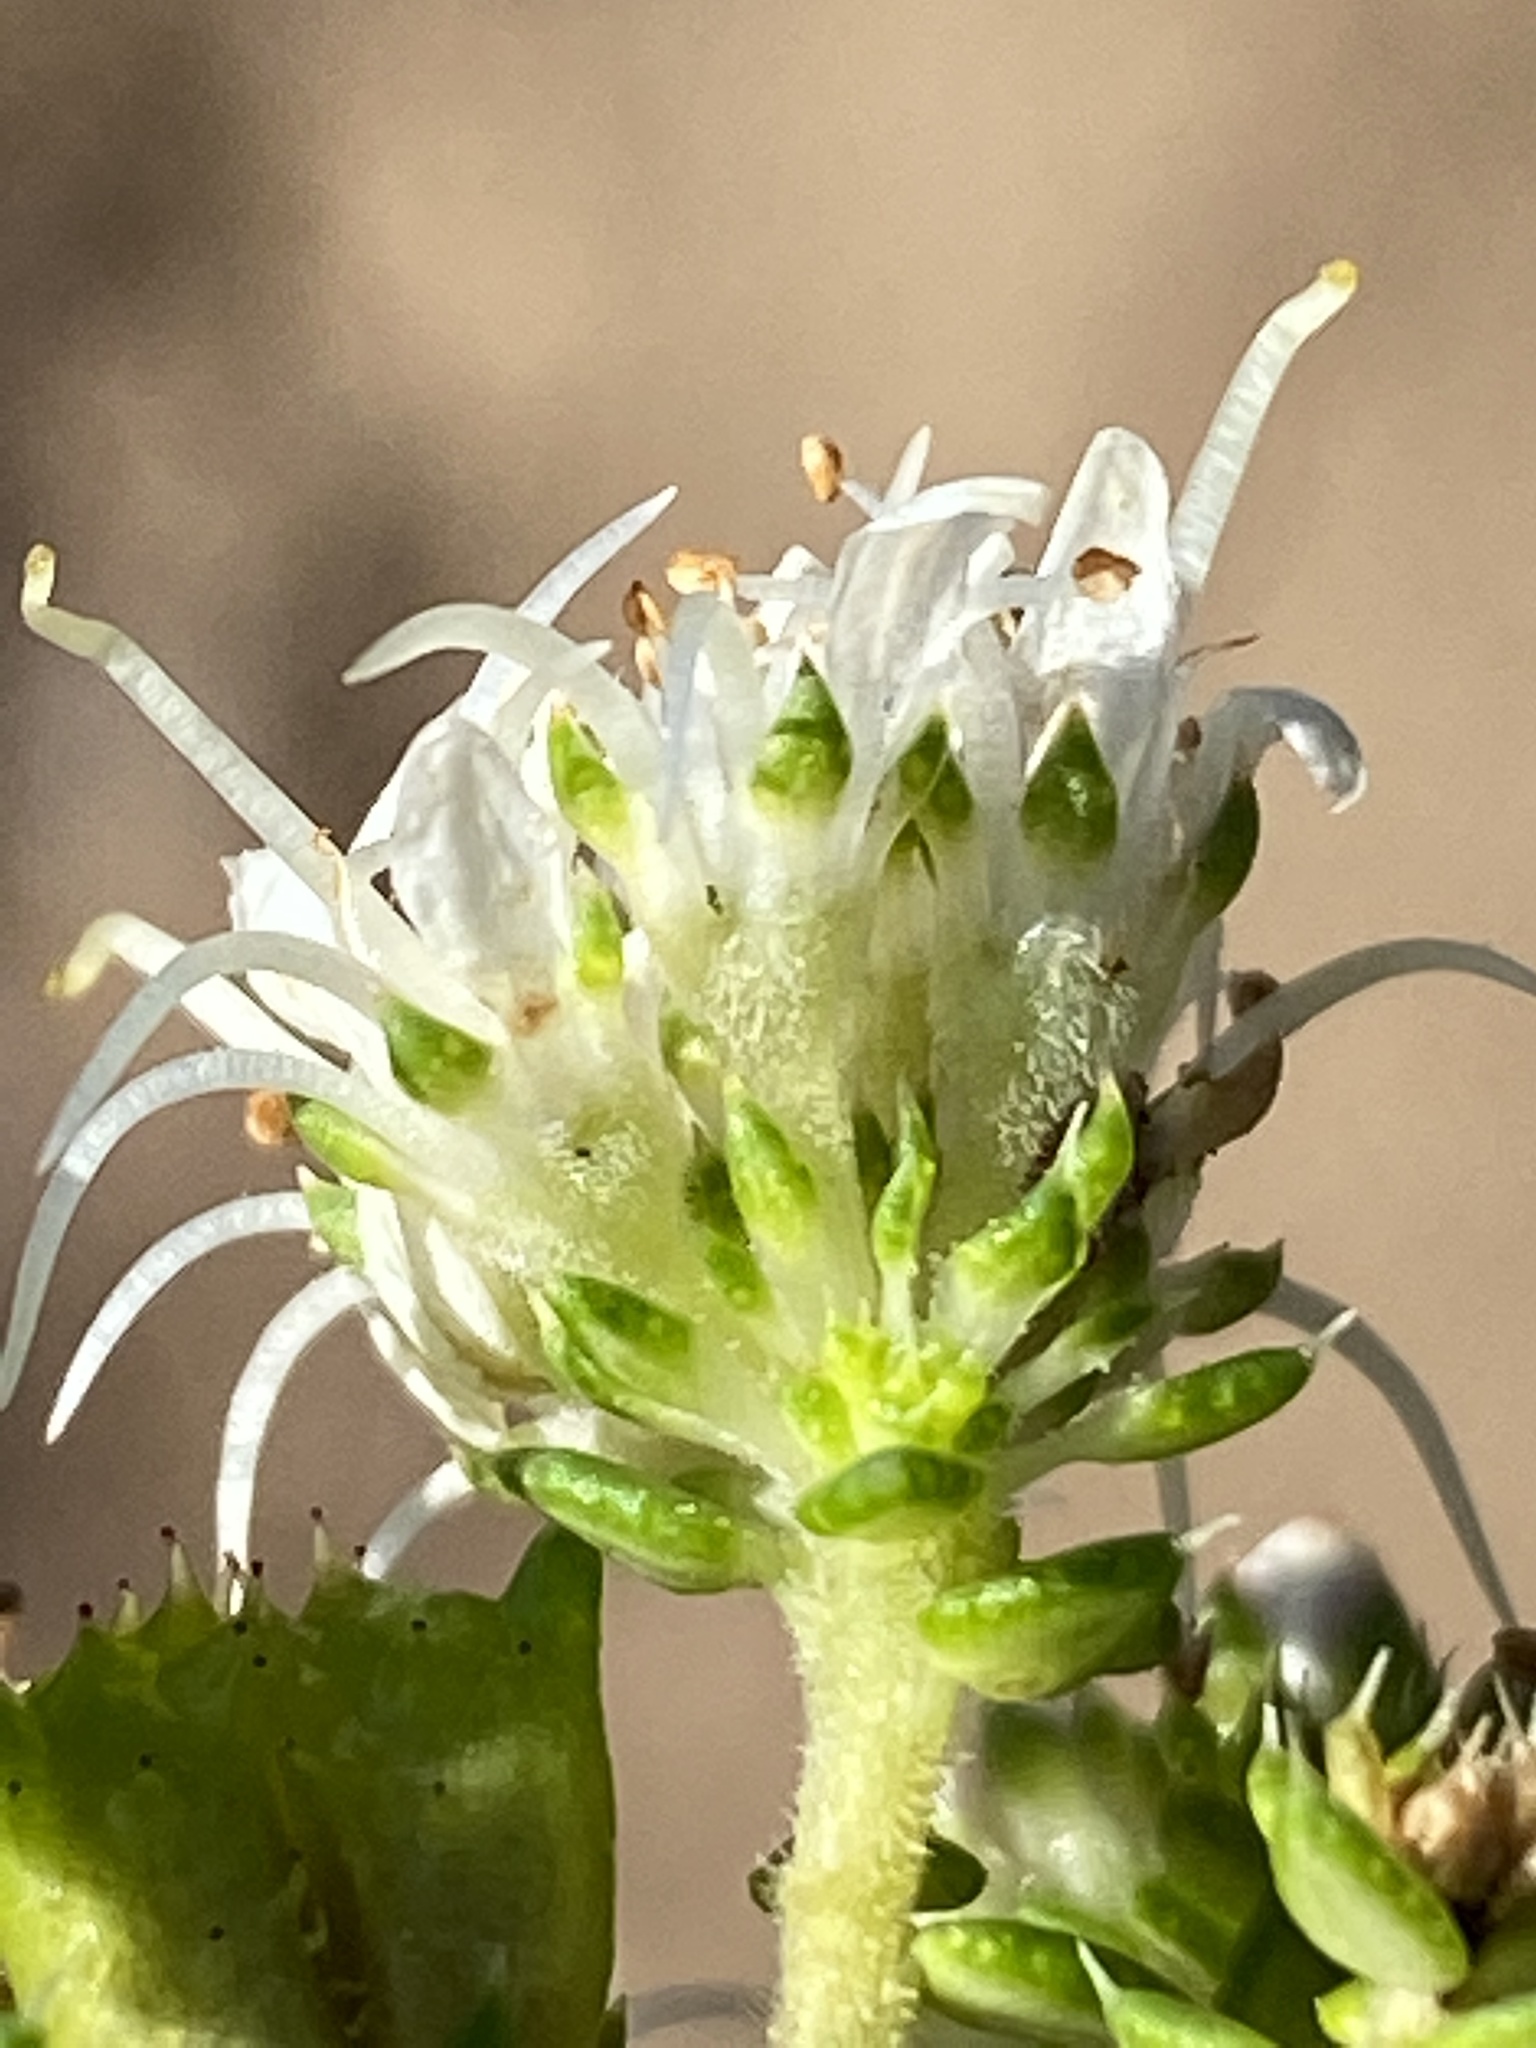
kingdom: Plantae
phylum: Tracheophyta
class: Magnoliopsida
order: Sapindales
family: Rutaceae
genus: Agathosma
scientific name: Agathosma apiculata
